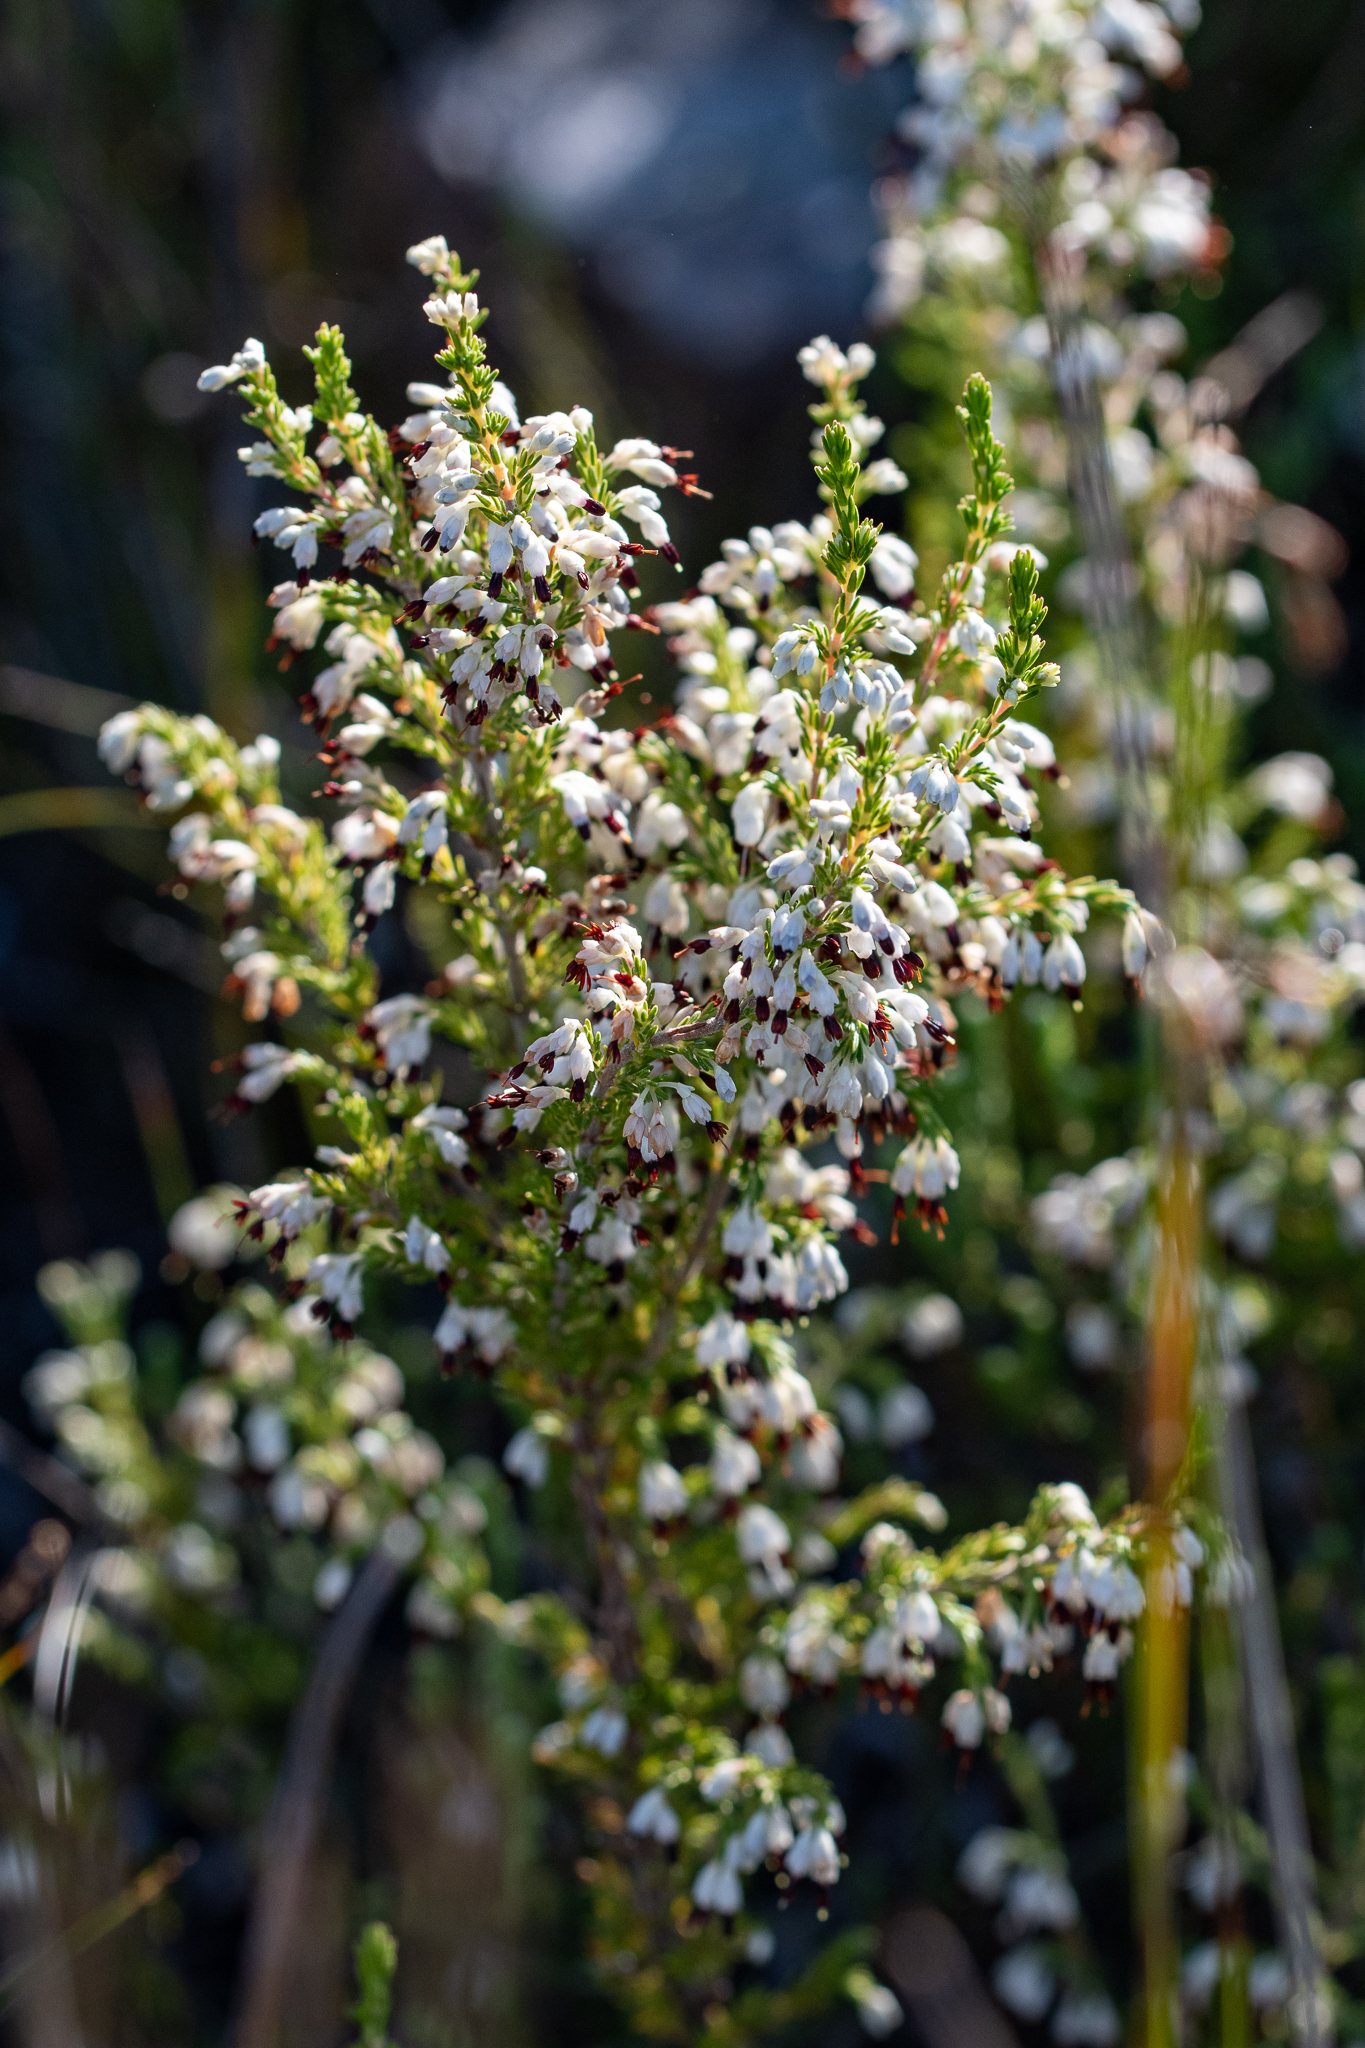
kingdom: Plantae
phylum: Tracheophyta
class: Magnoliopsida
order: Ericales
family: Ericaceae
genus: Erica
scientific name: Erica imbricata
